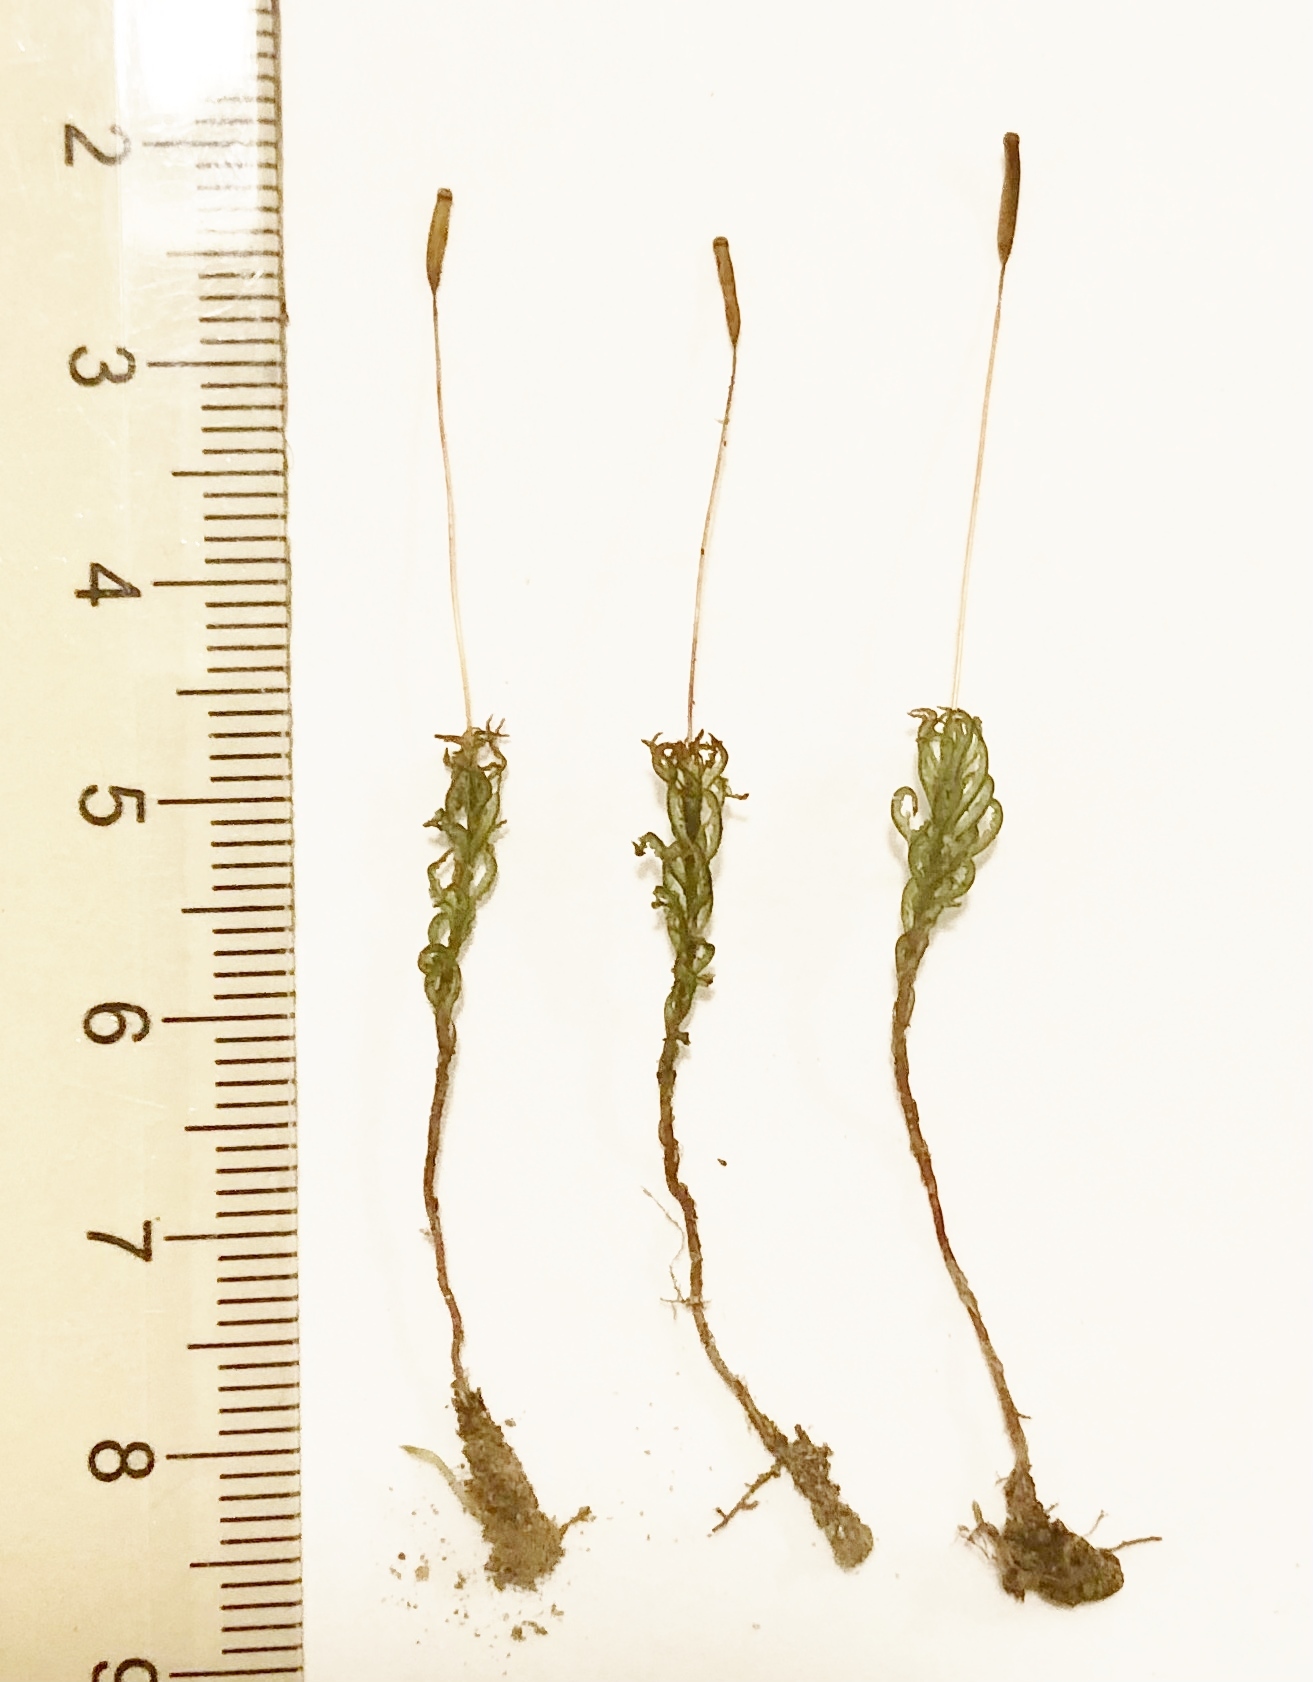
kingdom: Plantae
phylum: Bryophyta
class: Polytrichopsida
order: Polytrichales
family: Polytrichaceae
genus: Atrichum
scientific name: Atrichum altecristatum
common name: Ridged smoothcap moss
